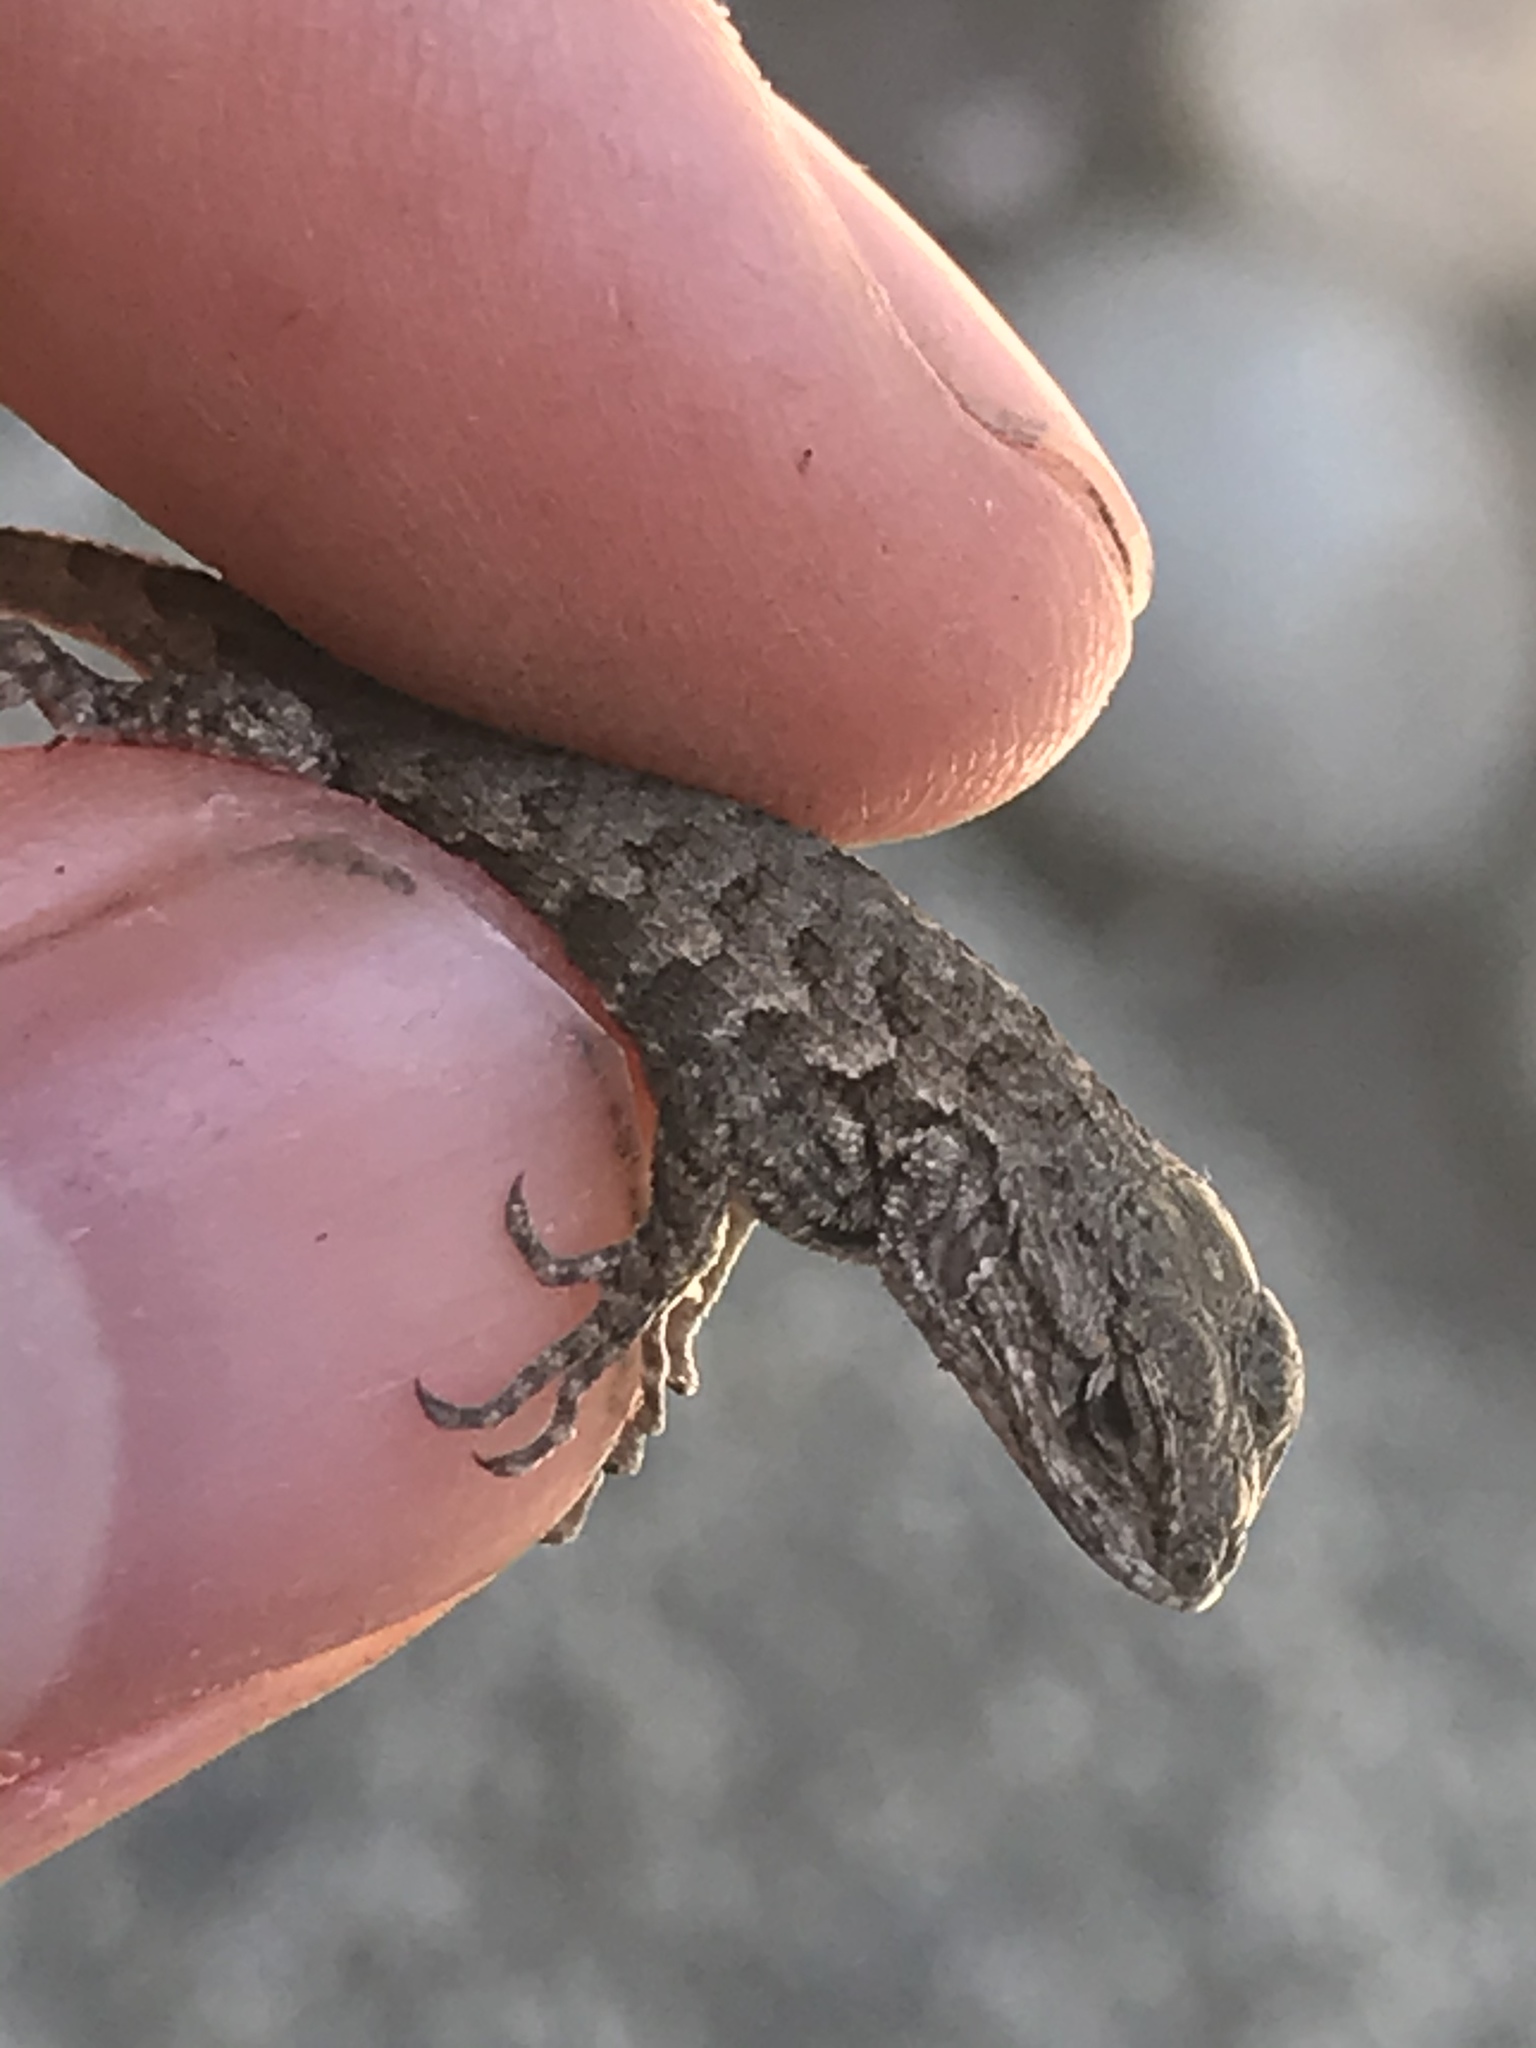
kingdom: Animalia
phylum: Chordata
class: Squamata
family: Phrynosomatidae
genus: Sceloporus
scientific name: Sceloporus occidentalis
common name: Western fence lizard
